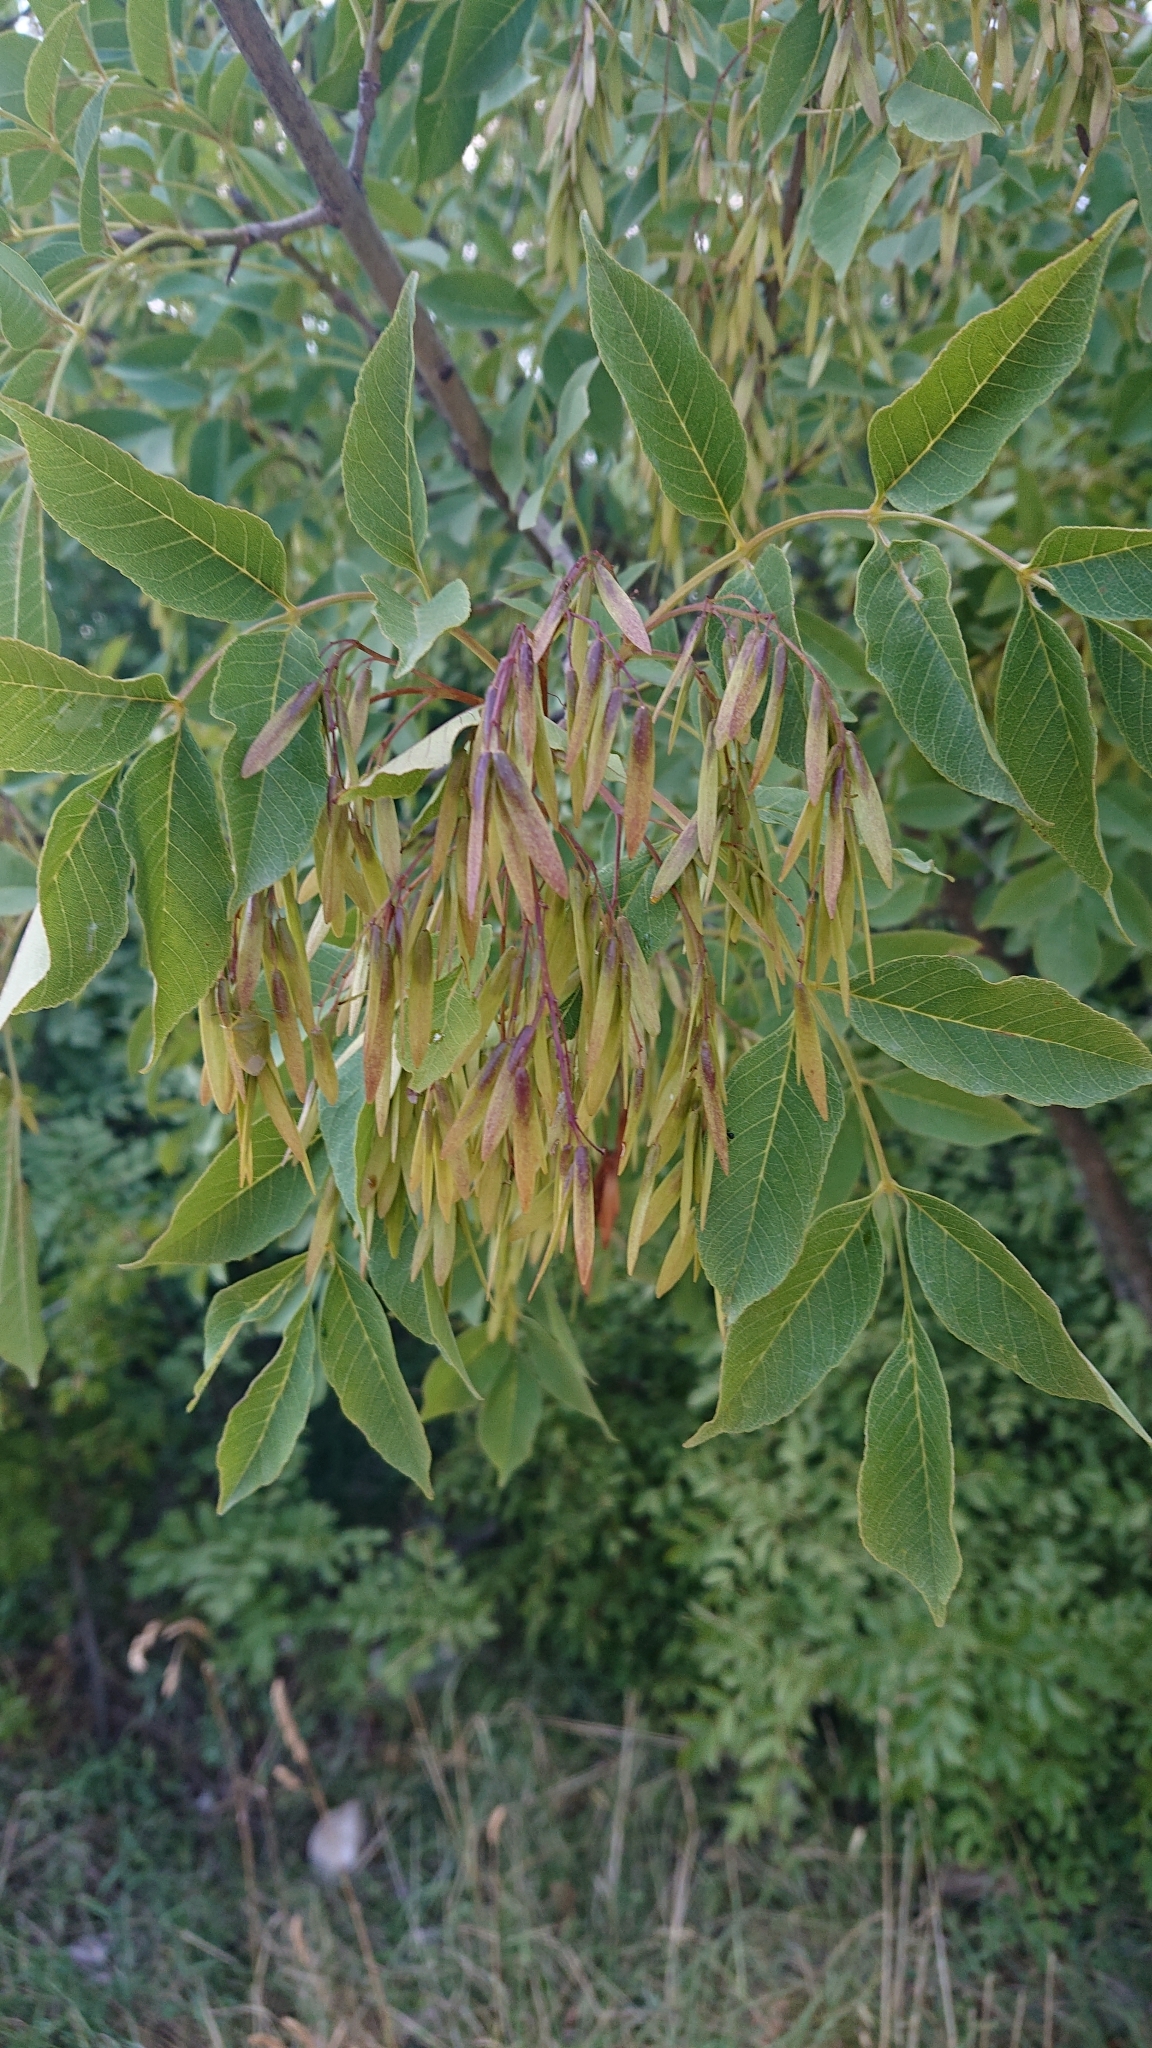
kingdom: Plantae
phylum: Tracheophyta
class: Magnoliopsida
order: Lamiales
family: Oleaceae
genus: Fraxinus
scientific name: Fraxinus ornus
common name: Manna ash
